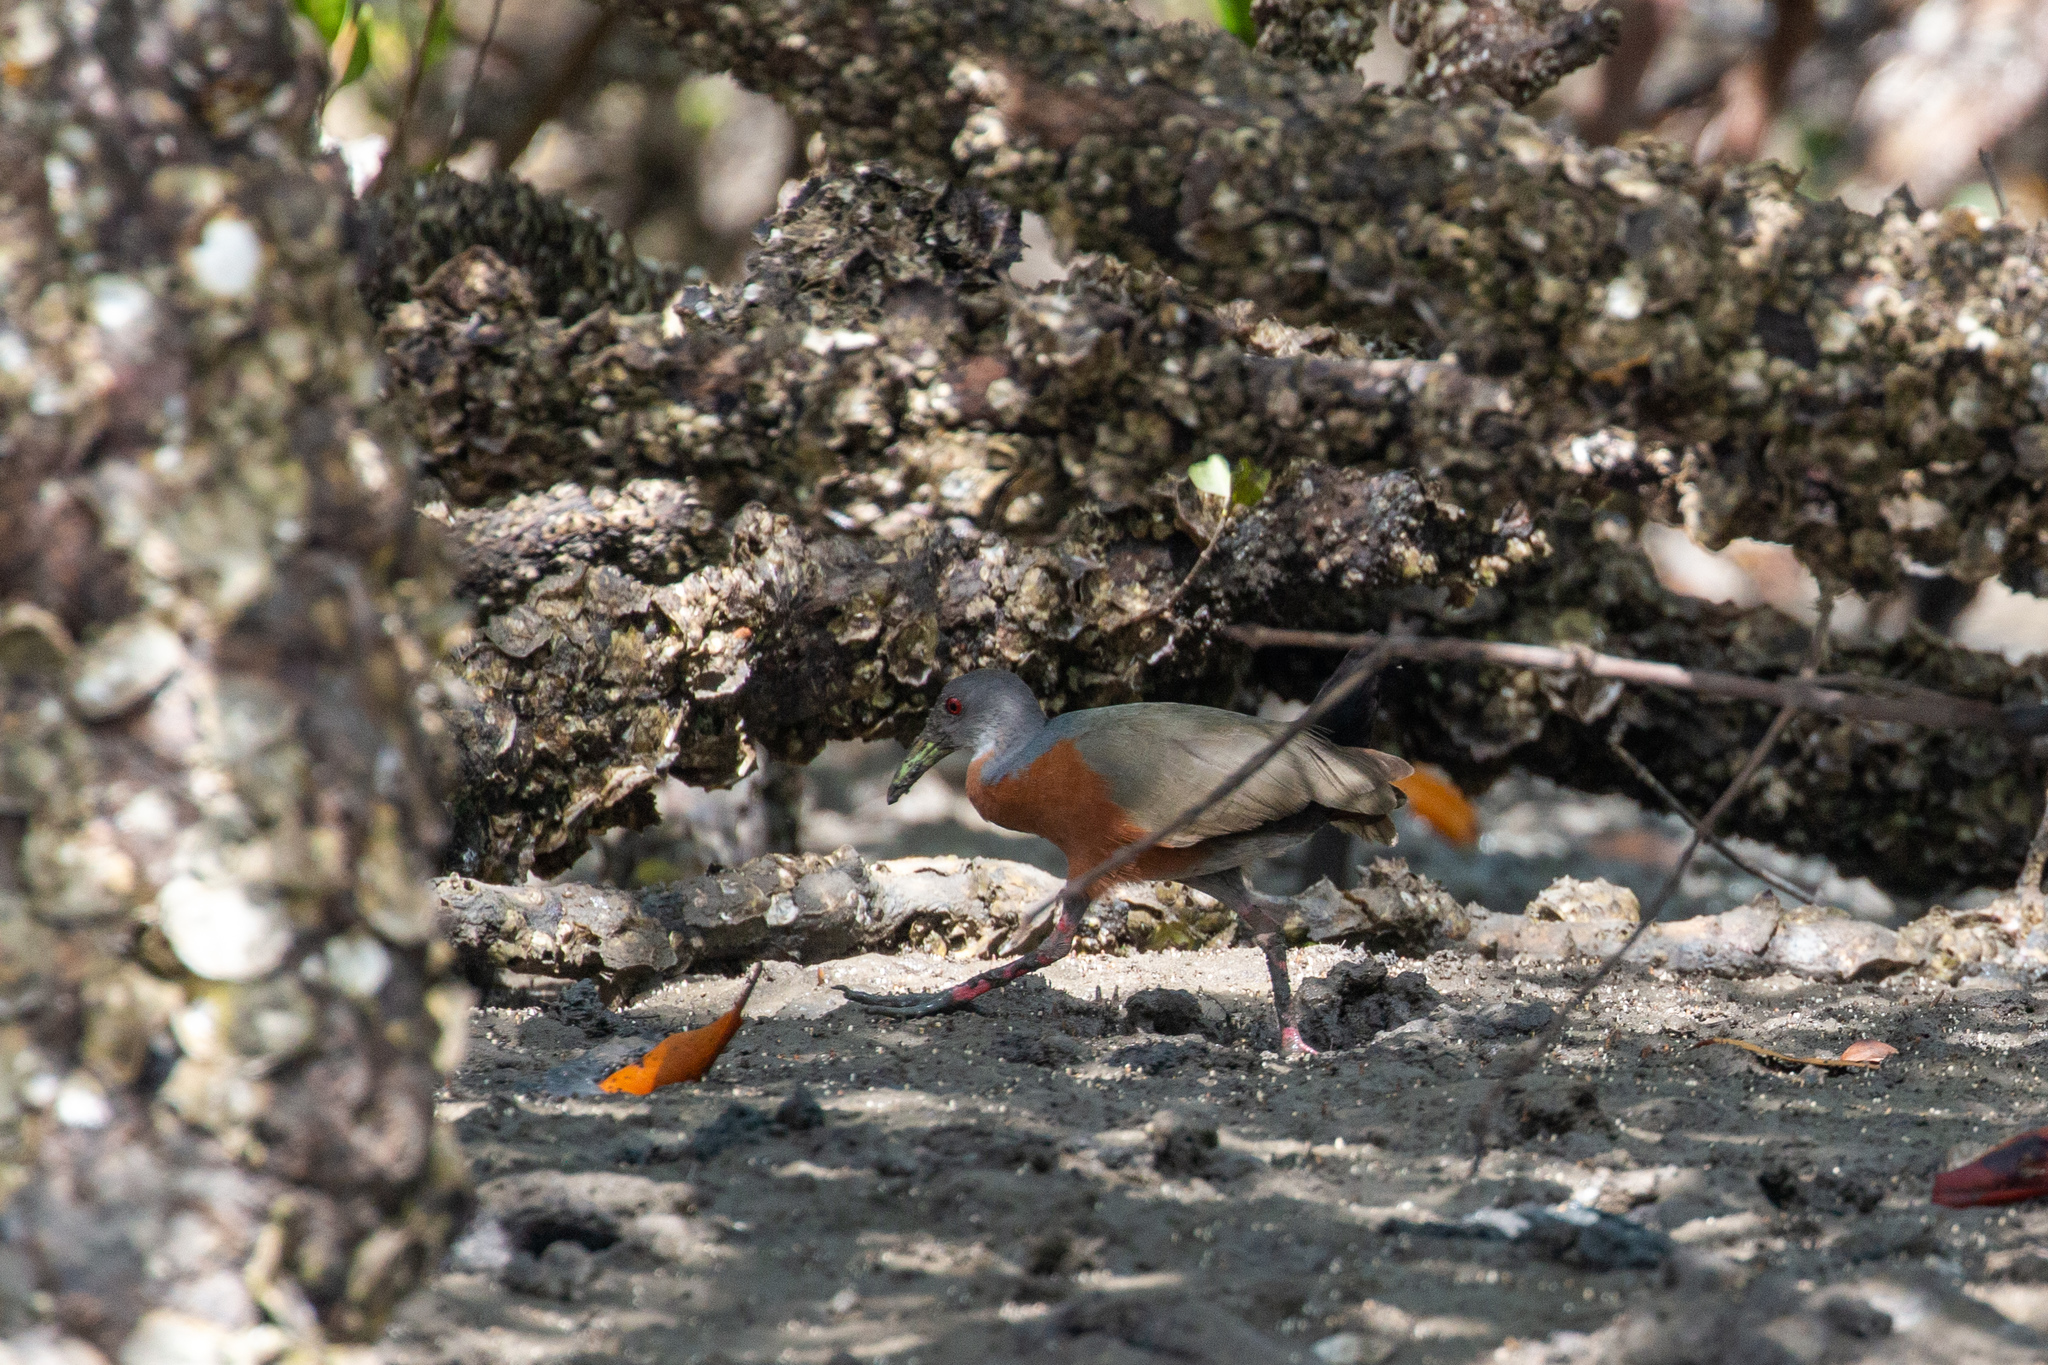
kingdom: Animalia
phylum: Chordata
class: Aves
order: Gruiformes
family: Rallidae
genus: Aramides
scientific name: Aramides mangle
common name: Little wood rail
